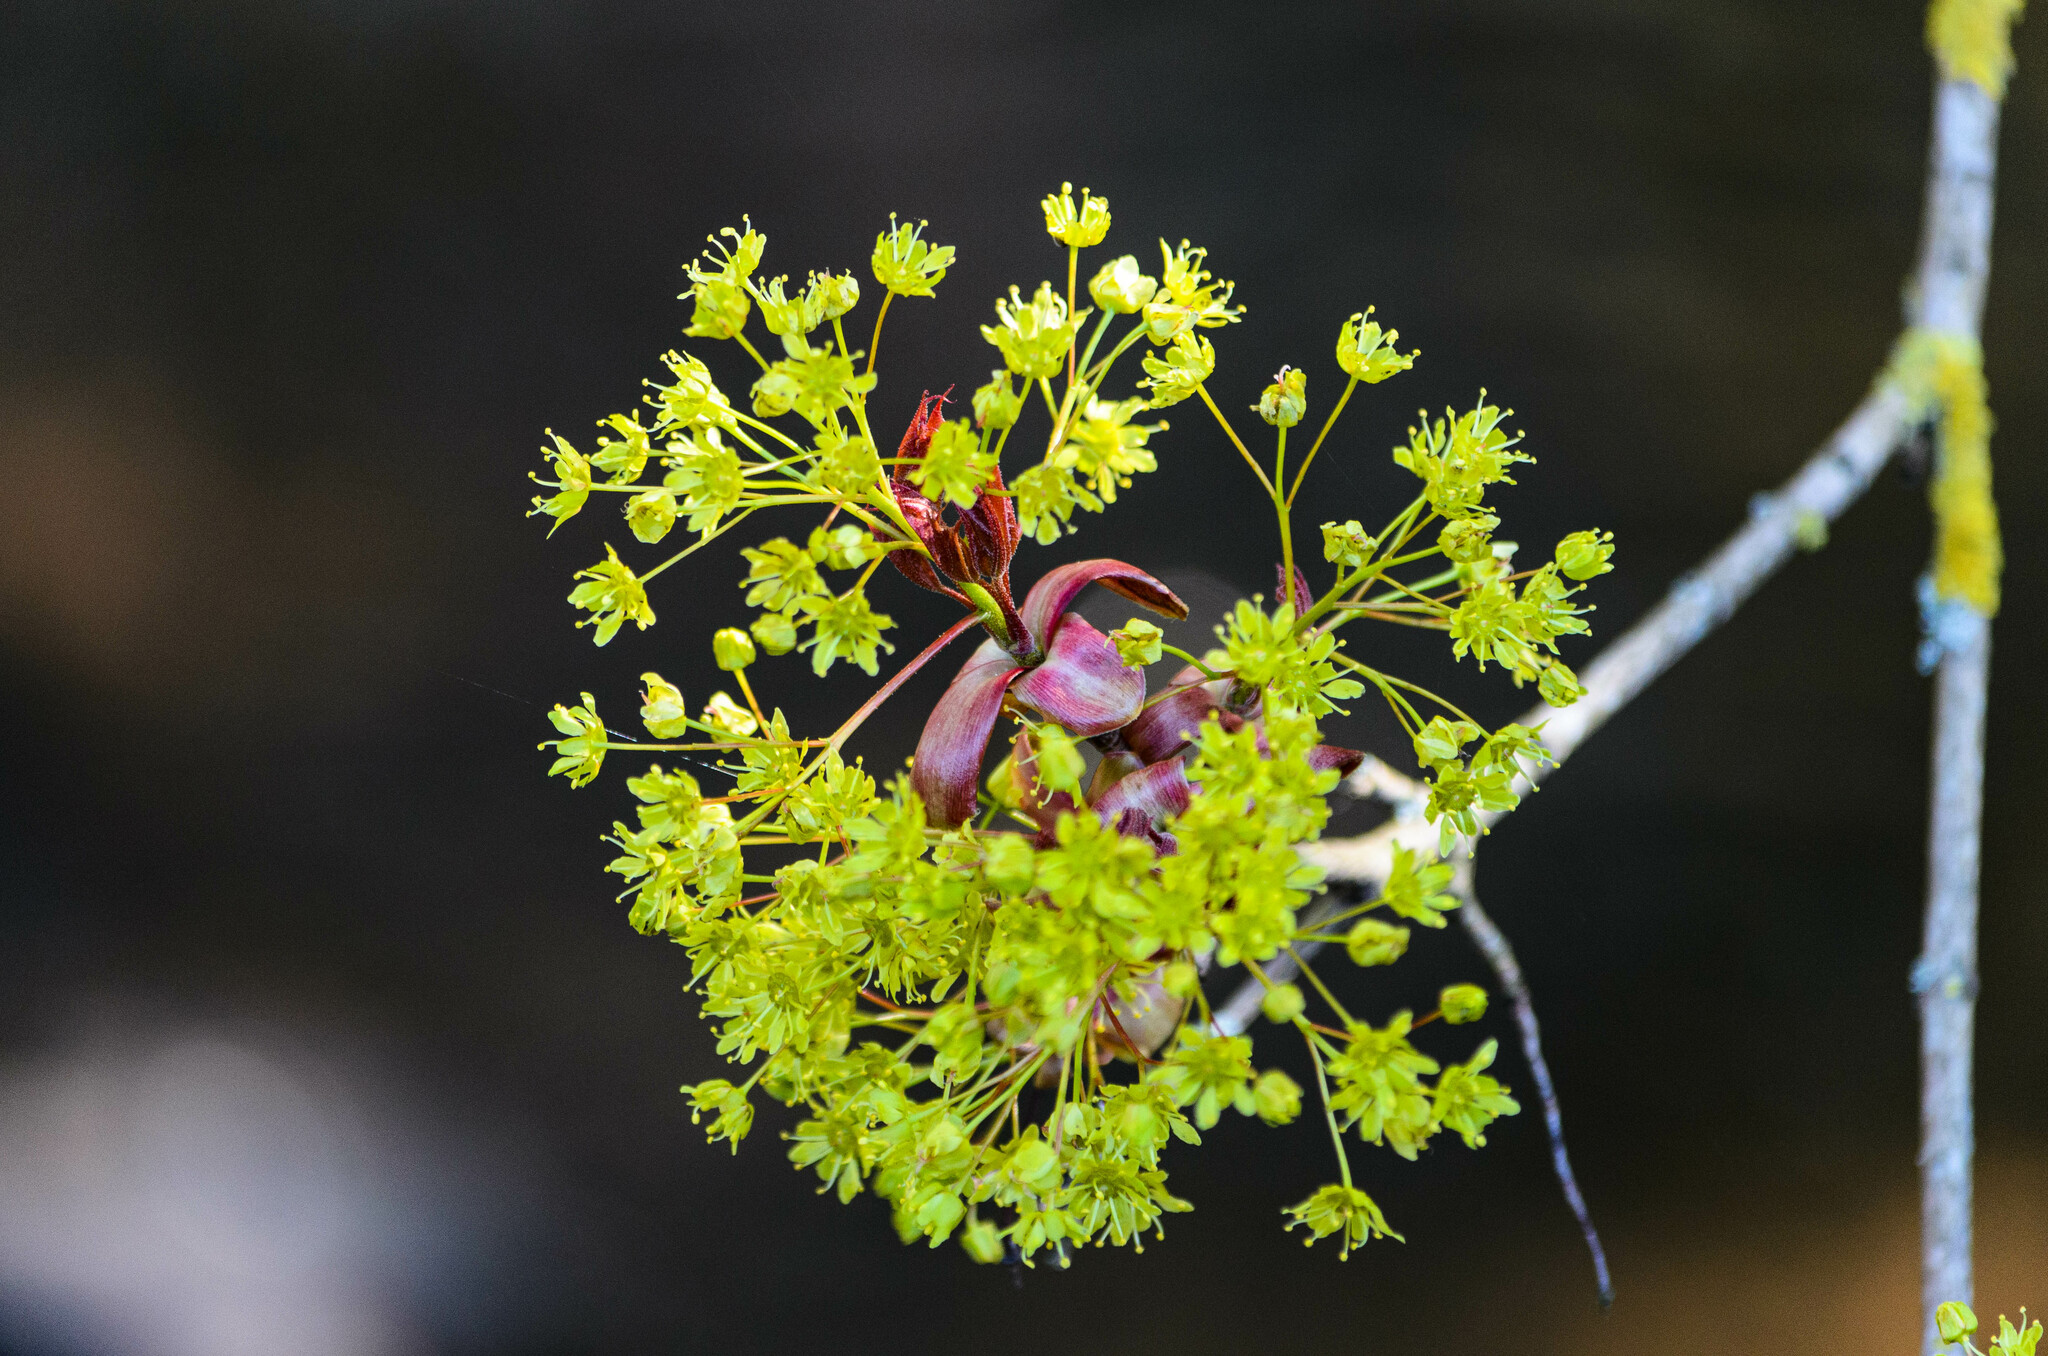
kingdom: Plantae
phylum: Tracheophyta
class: Magnoliopsida
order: Sapindales
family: Sapindaceae
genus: Acer
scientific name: Acer platanoides
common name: Norway maple
